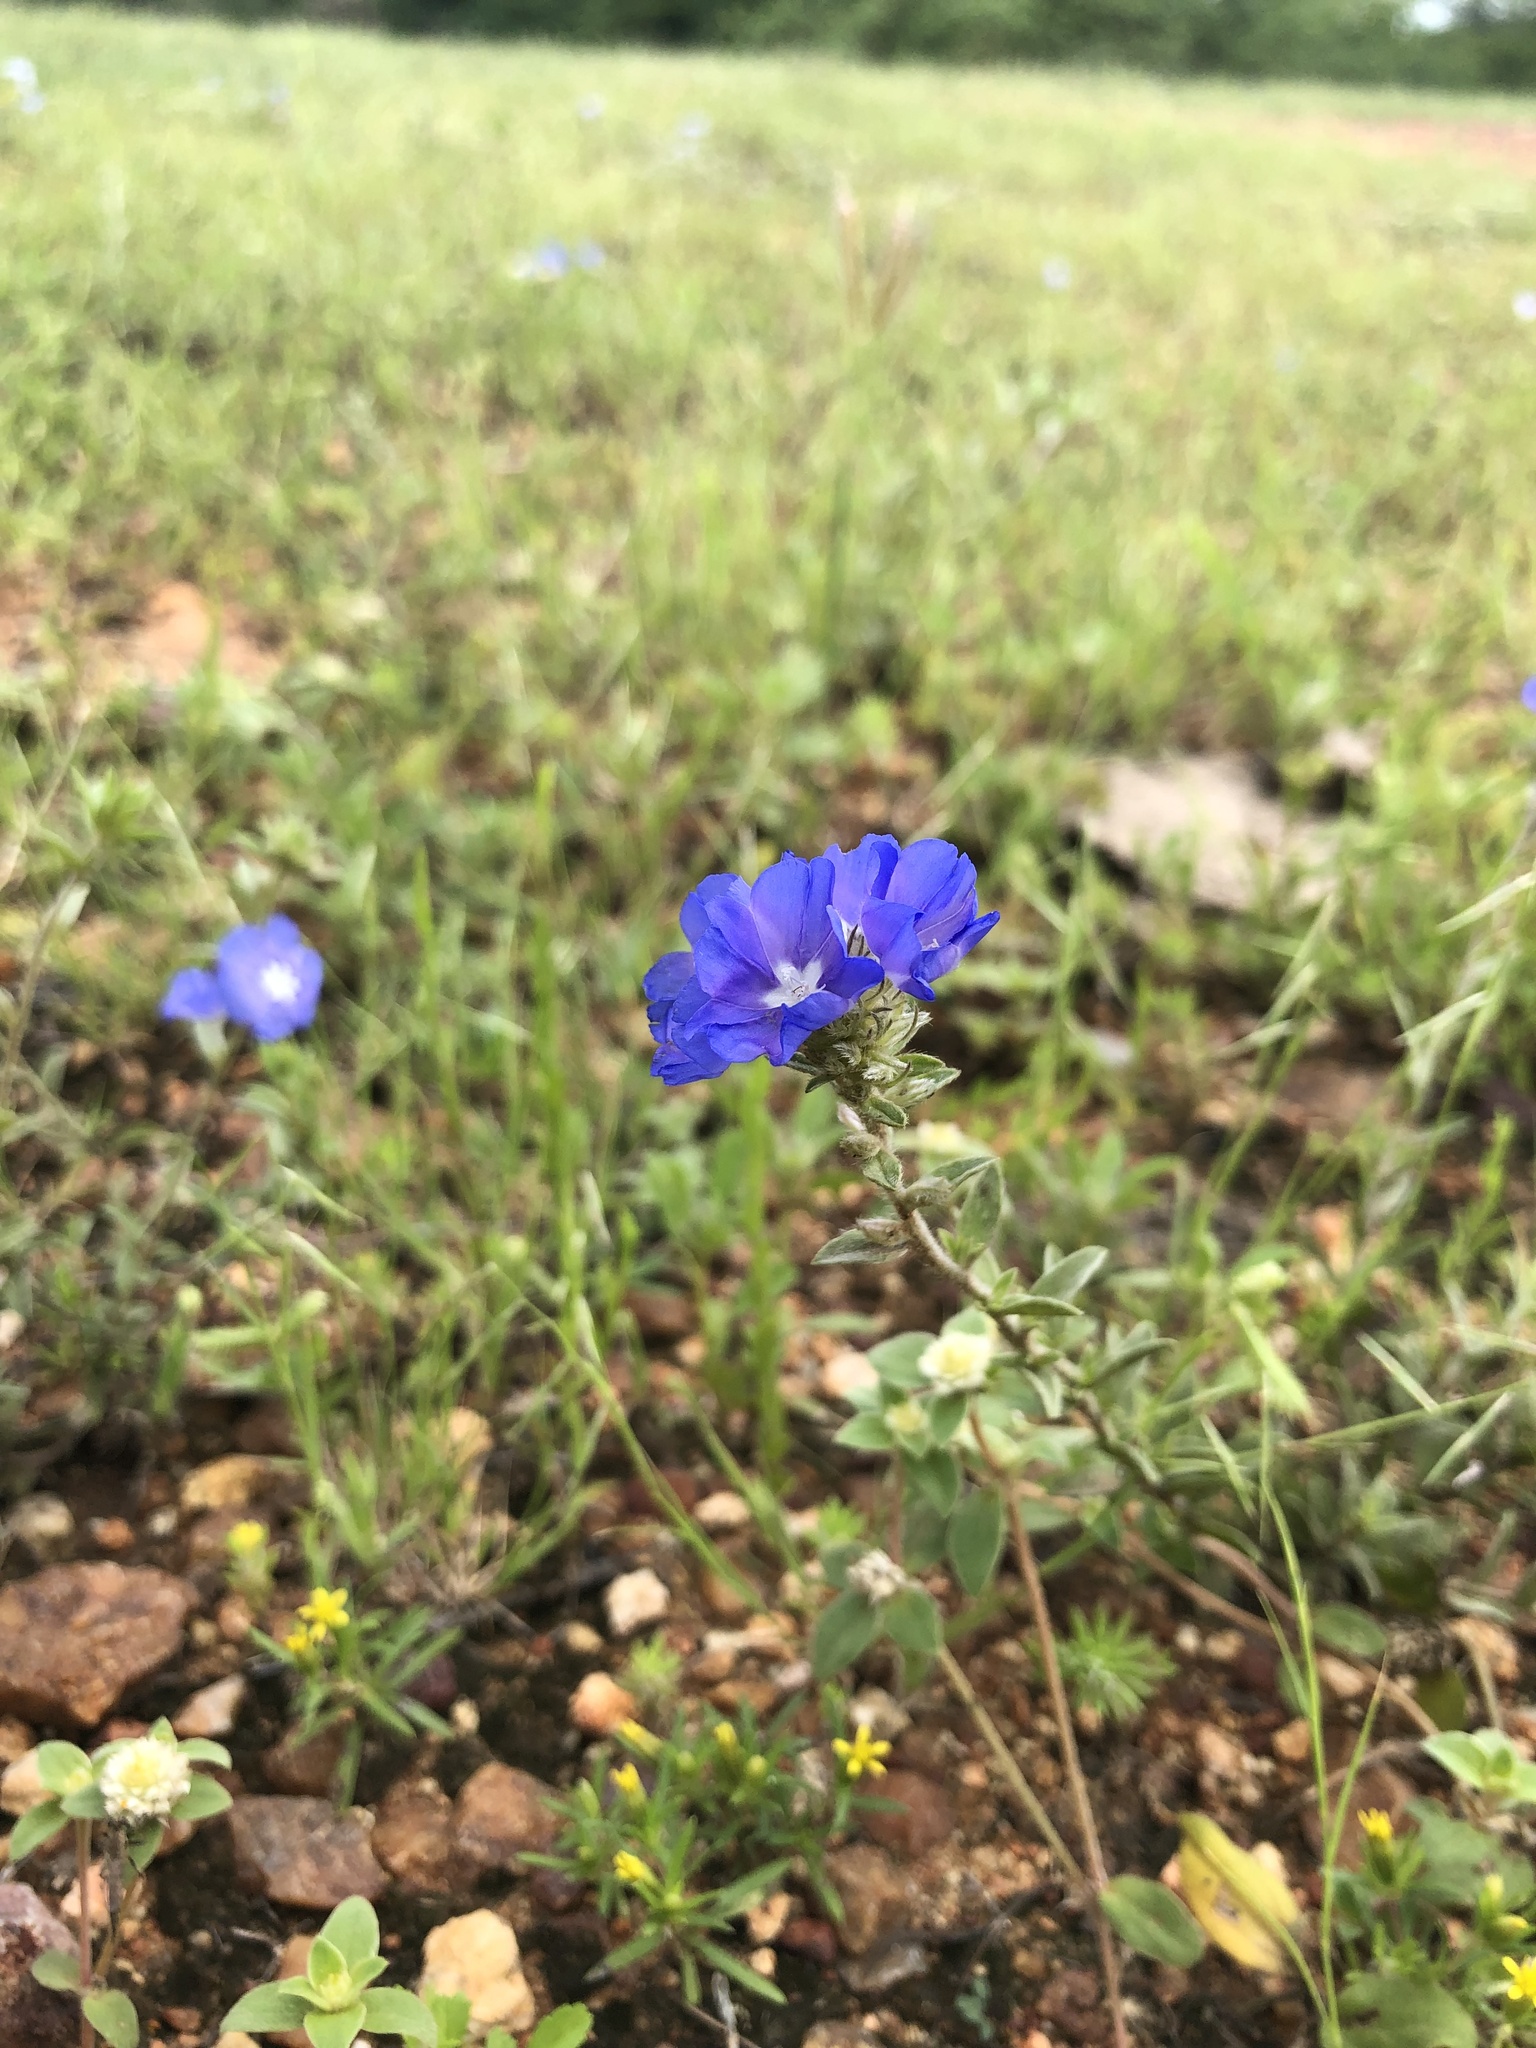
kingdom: Plantae
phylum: Tracheophyta
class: Magnoliopsida
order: Solanales
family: Convolvulaceae
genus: Evolvulus
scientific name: Evolvulus glomeratus
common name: Brazilian dwarf morning-glory
